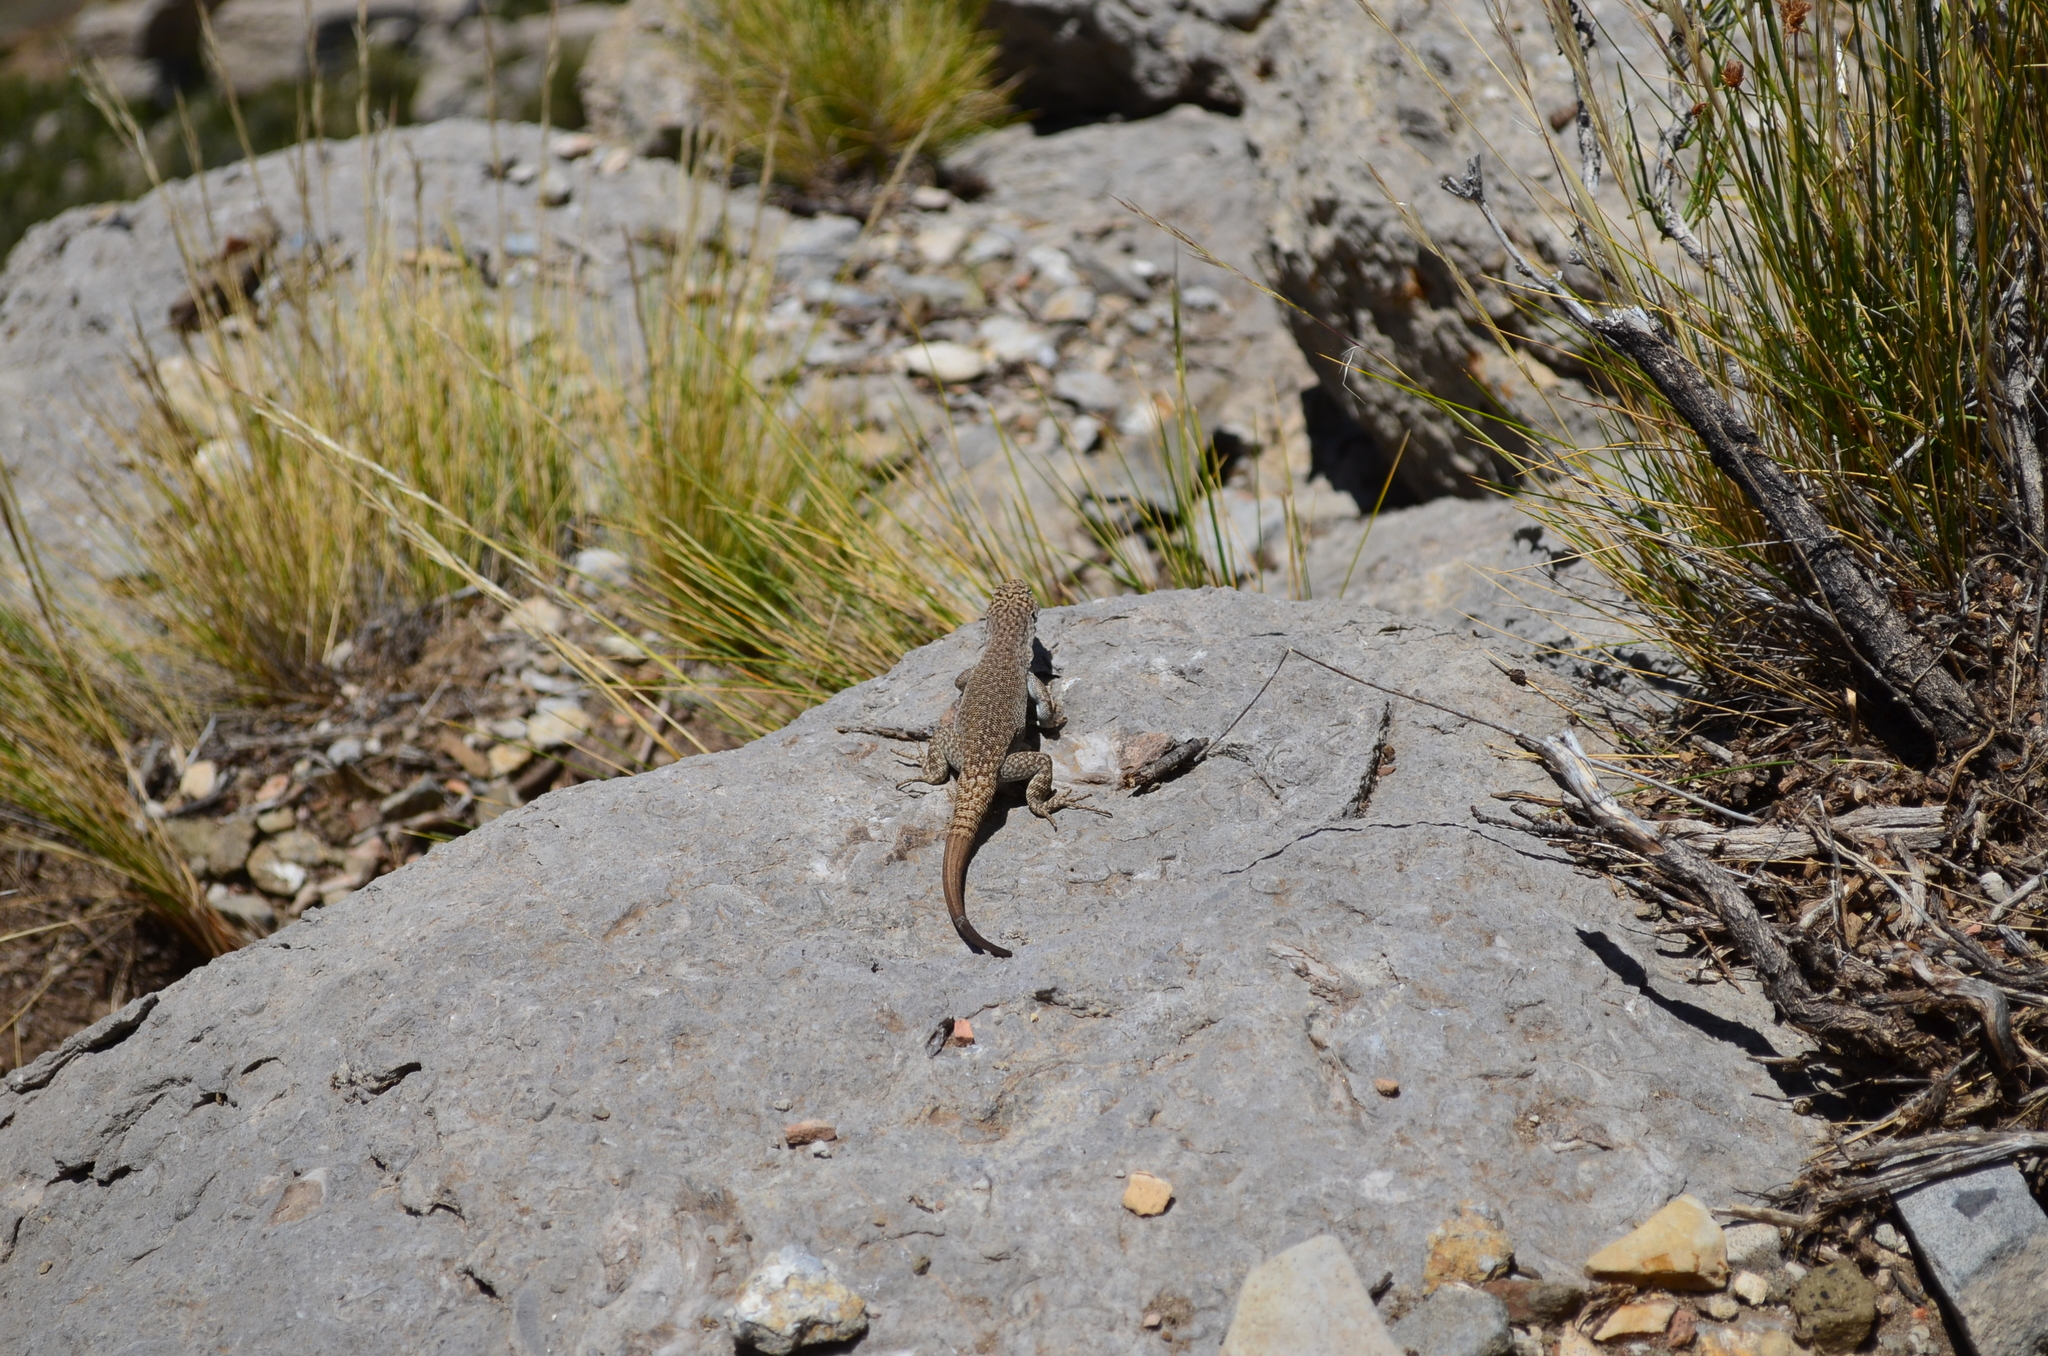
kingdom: Animalia
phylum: Chordata
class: Squamata
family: Liolaemidae
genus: Liolaemus
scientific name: Liolaemus austromendocinus
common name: Austromendocino tree iguana
